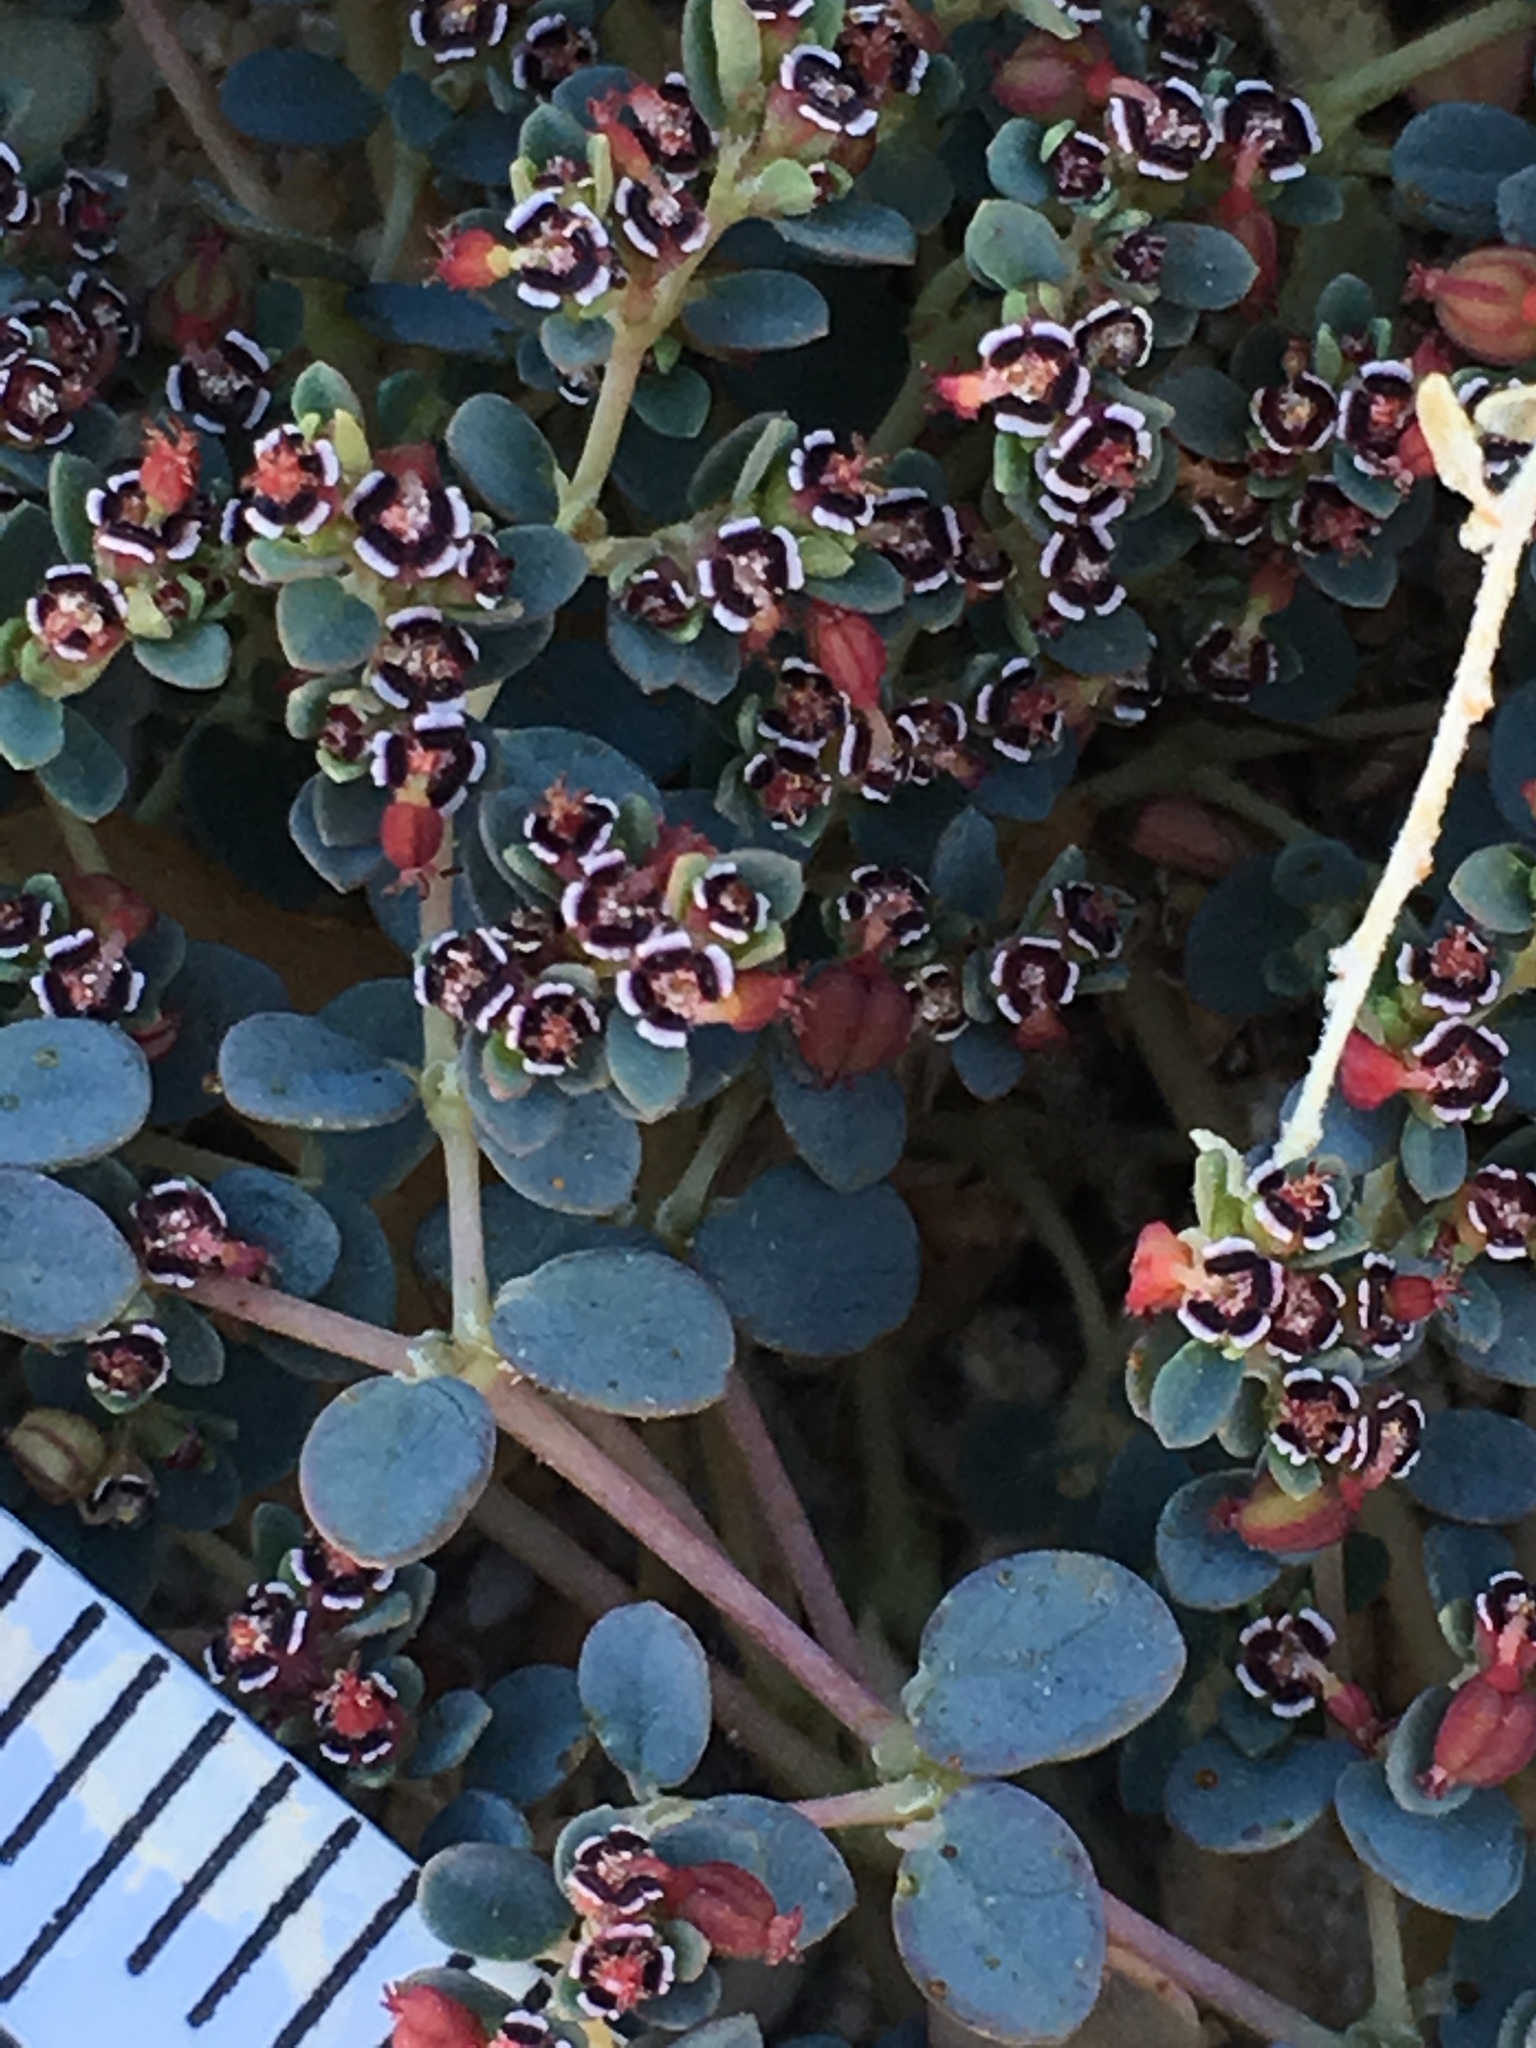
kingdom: Plantae
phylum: Tracheophyta
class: Magnoliopsida
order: Malpighiales
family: Euphorbiaceae
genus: Euphorbia
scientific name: Euphorbia polycarpa
